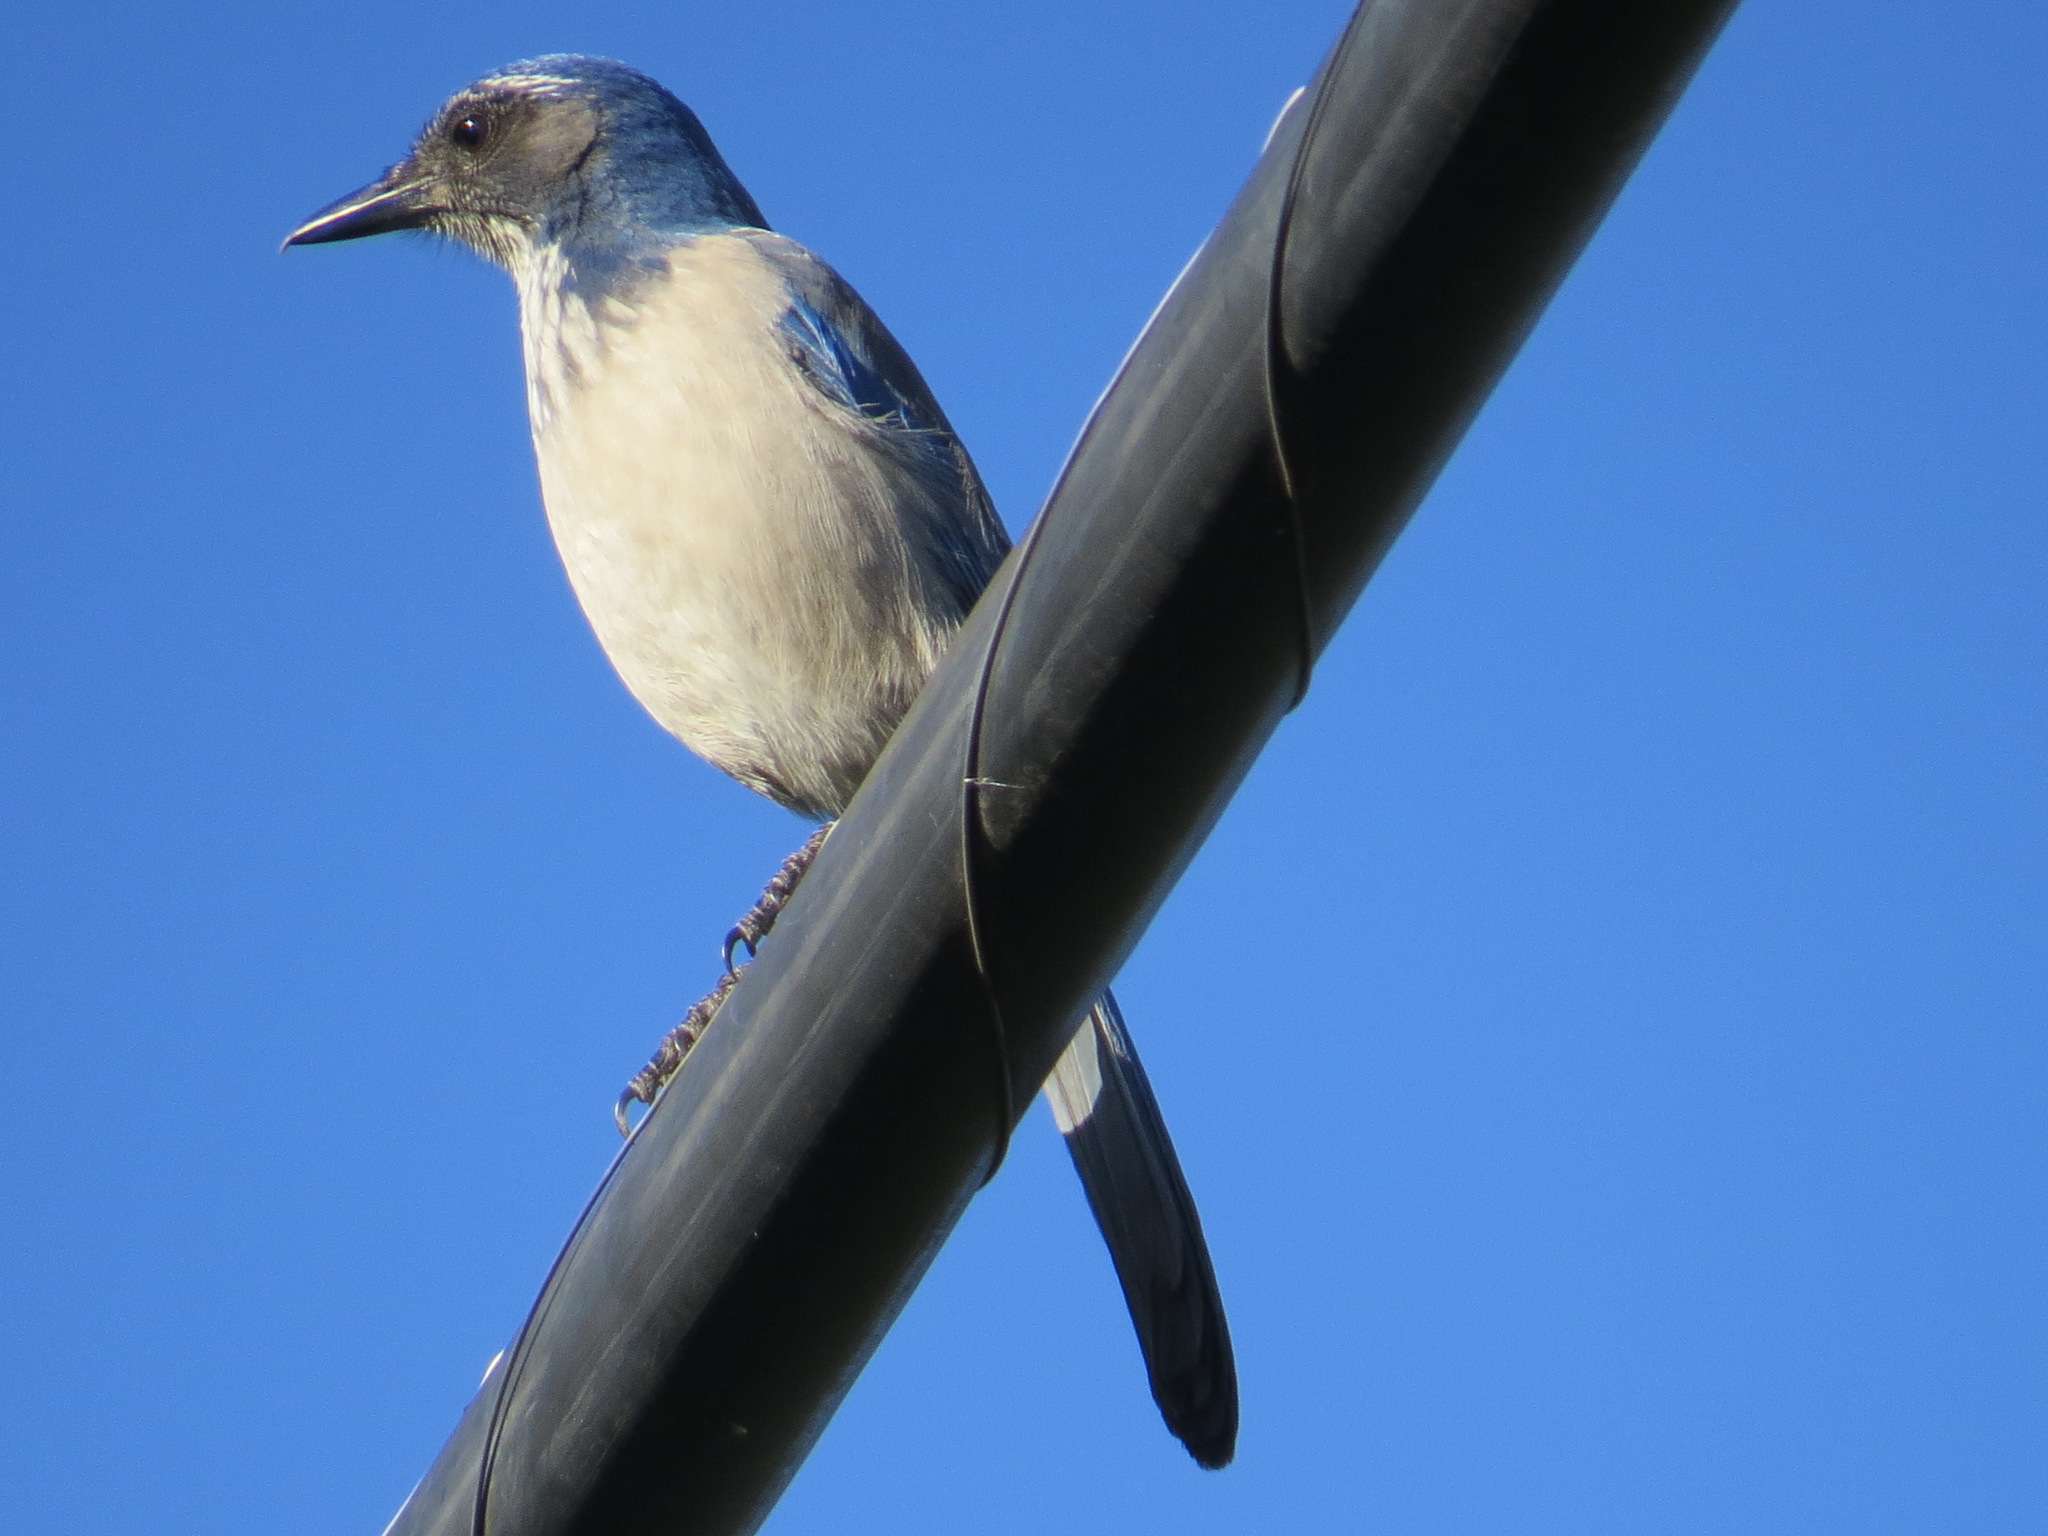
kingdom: Animalia
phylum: Chordata
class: Aves
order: Passeriformes
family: Corvidae
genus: Aphelocoma
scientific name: Aphelocoma californica
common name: California scrub-jay
